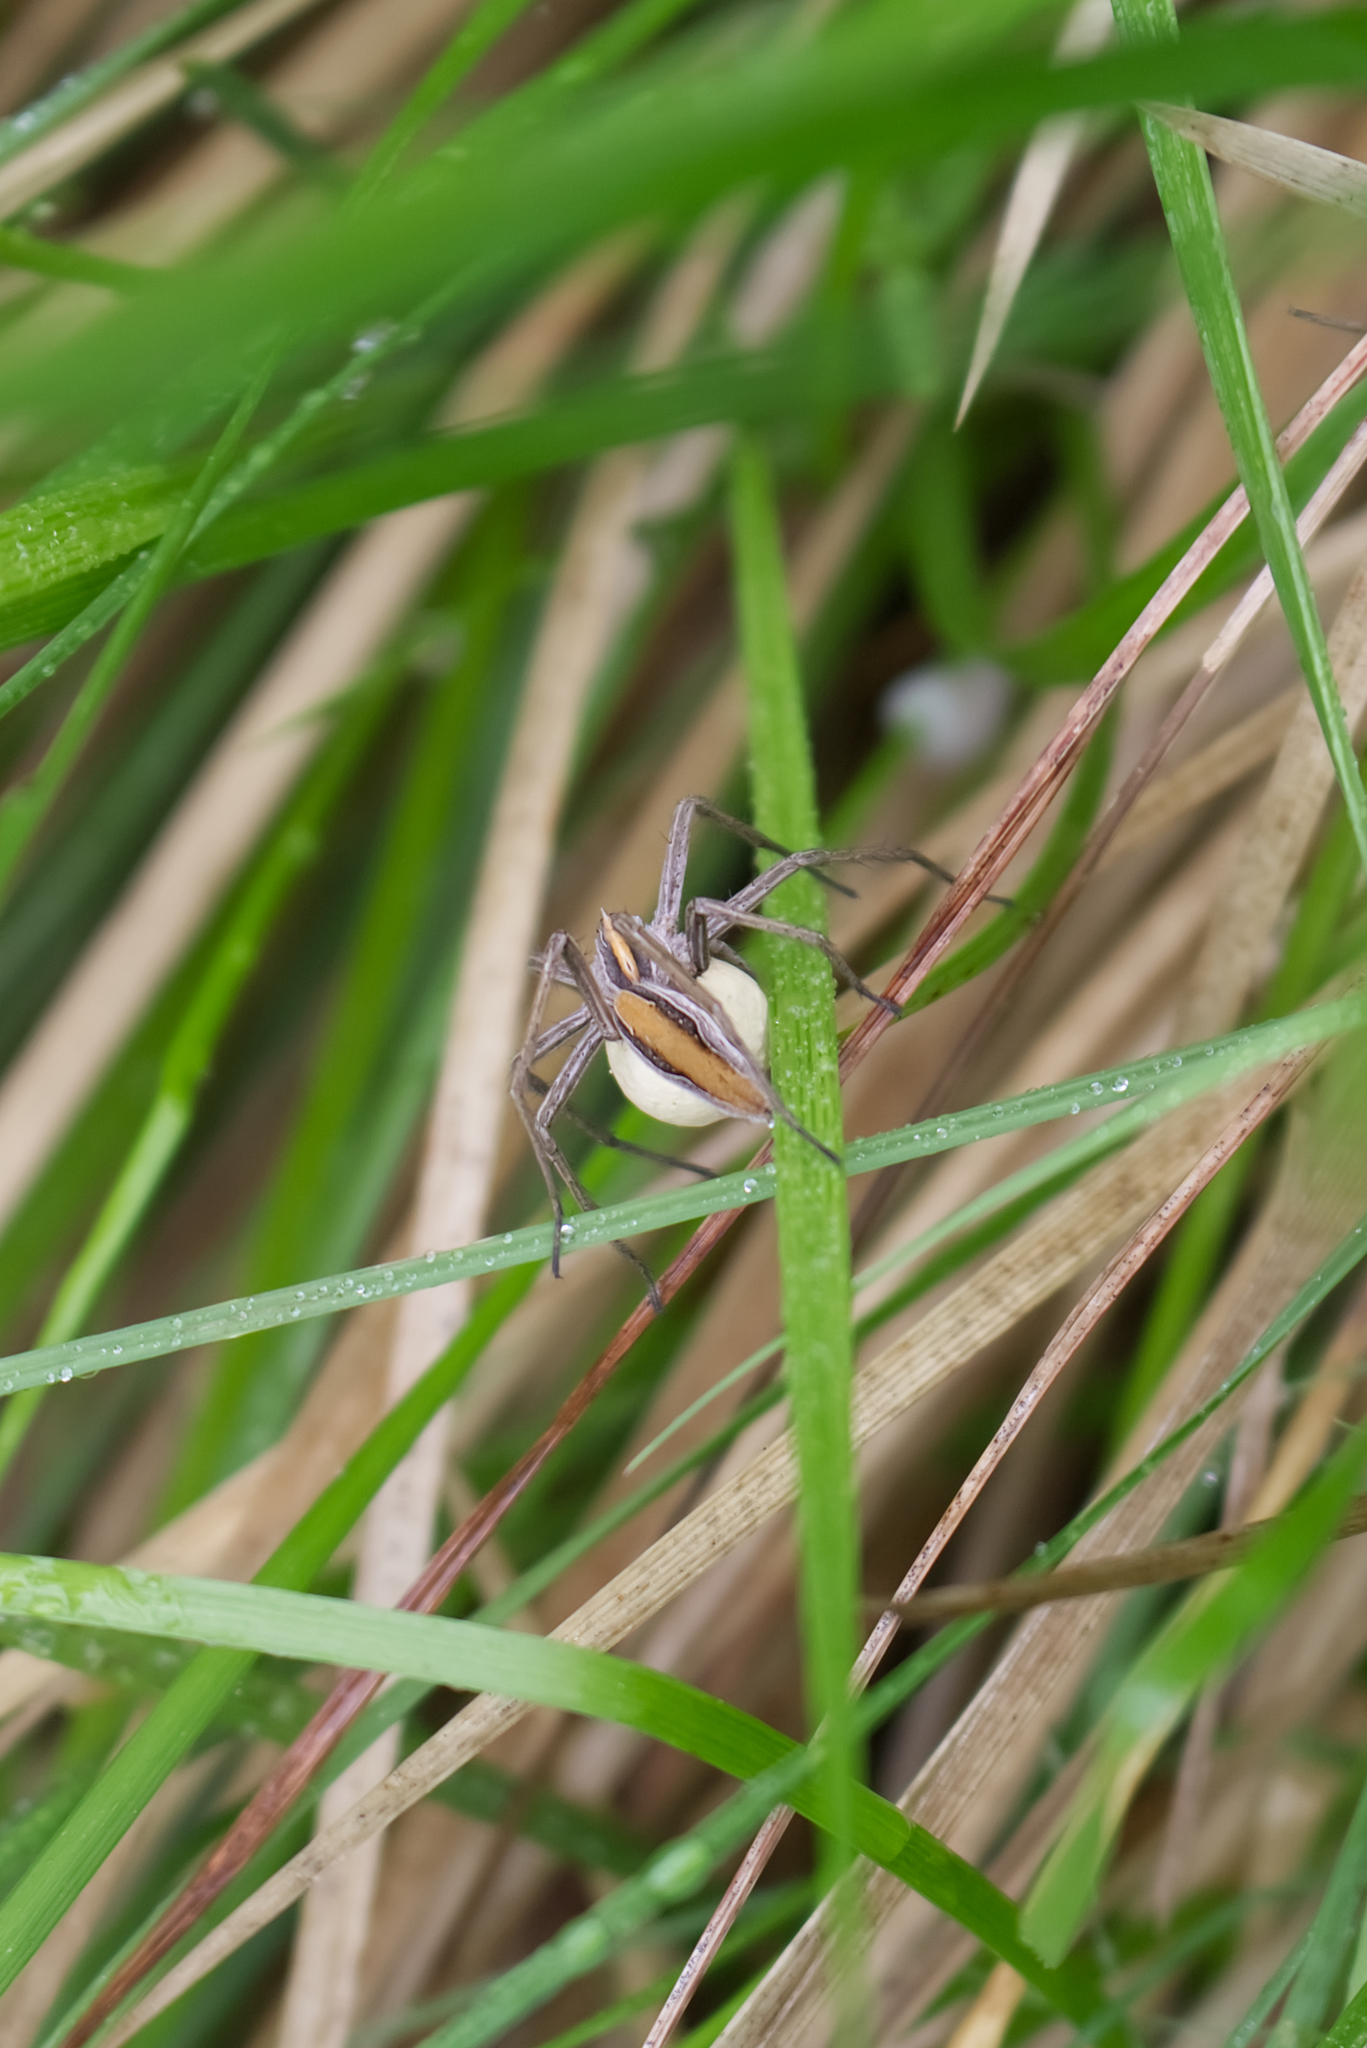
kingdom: Animalia
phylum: Arthropoda
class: Arachnida
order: Araneae
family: Pisauridae
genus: Pisaura
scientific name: Pisaura mirabilis
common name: Tent spider
